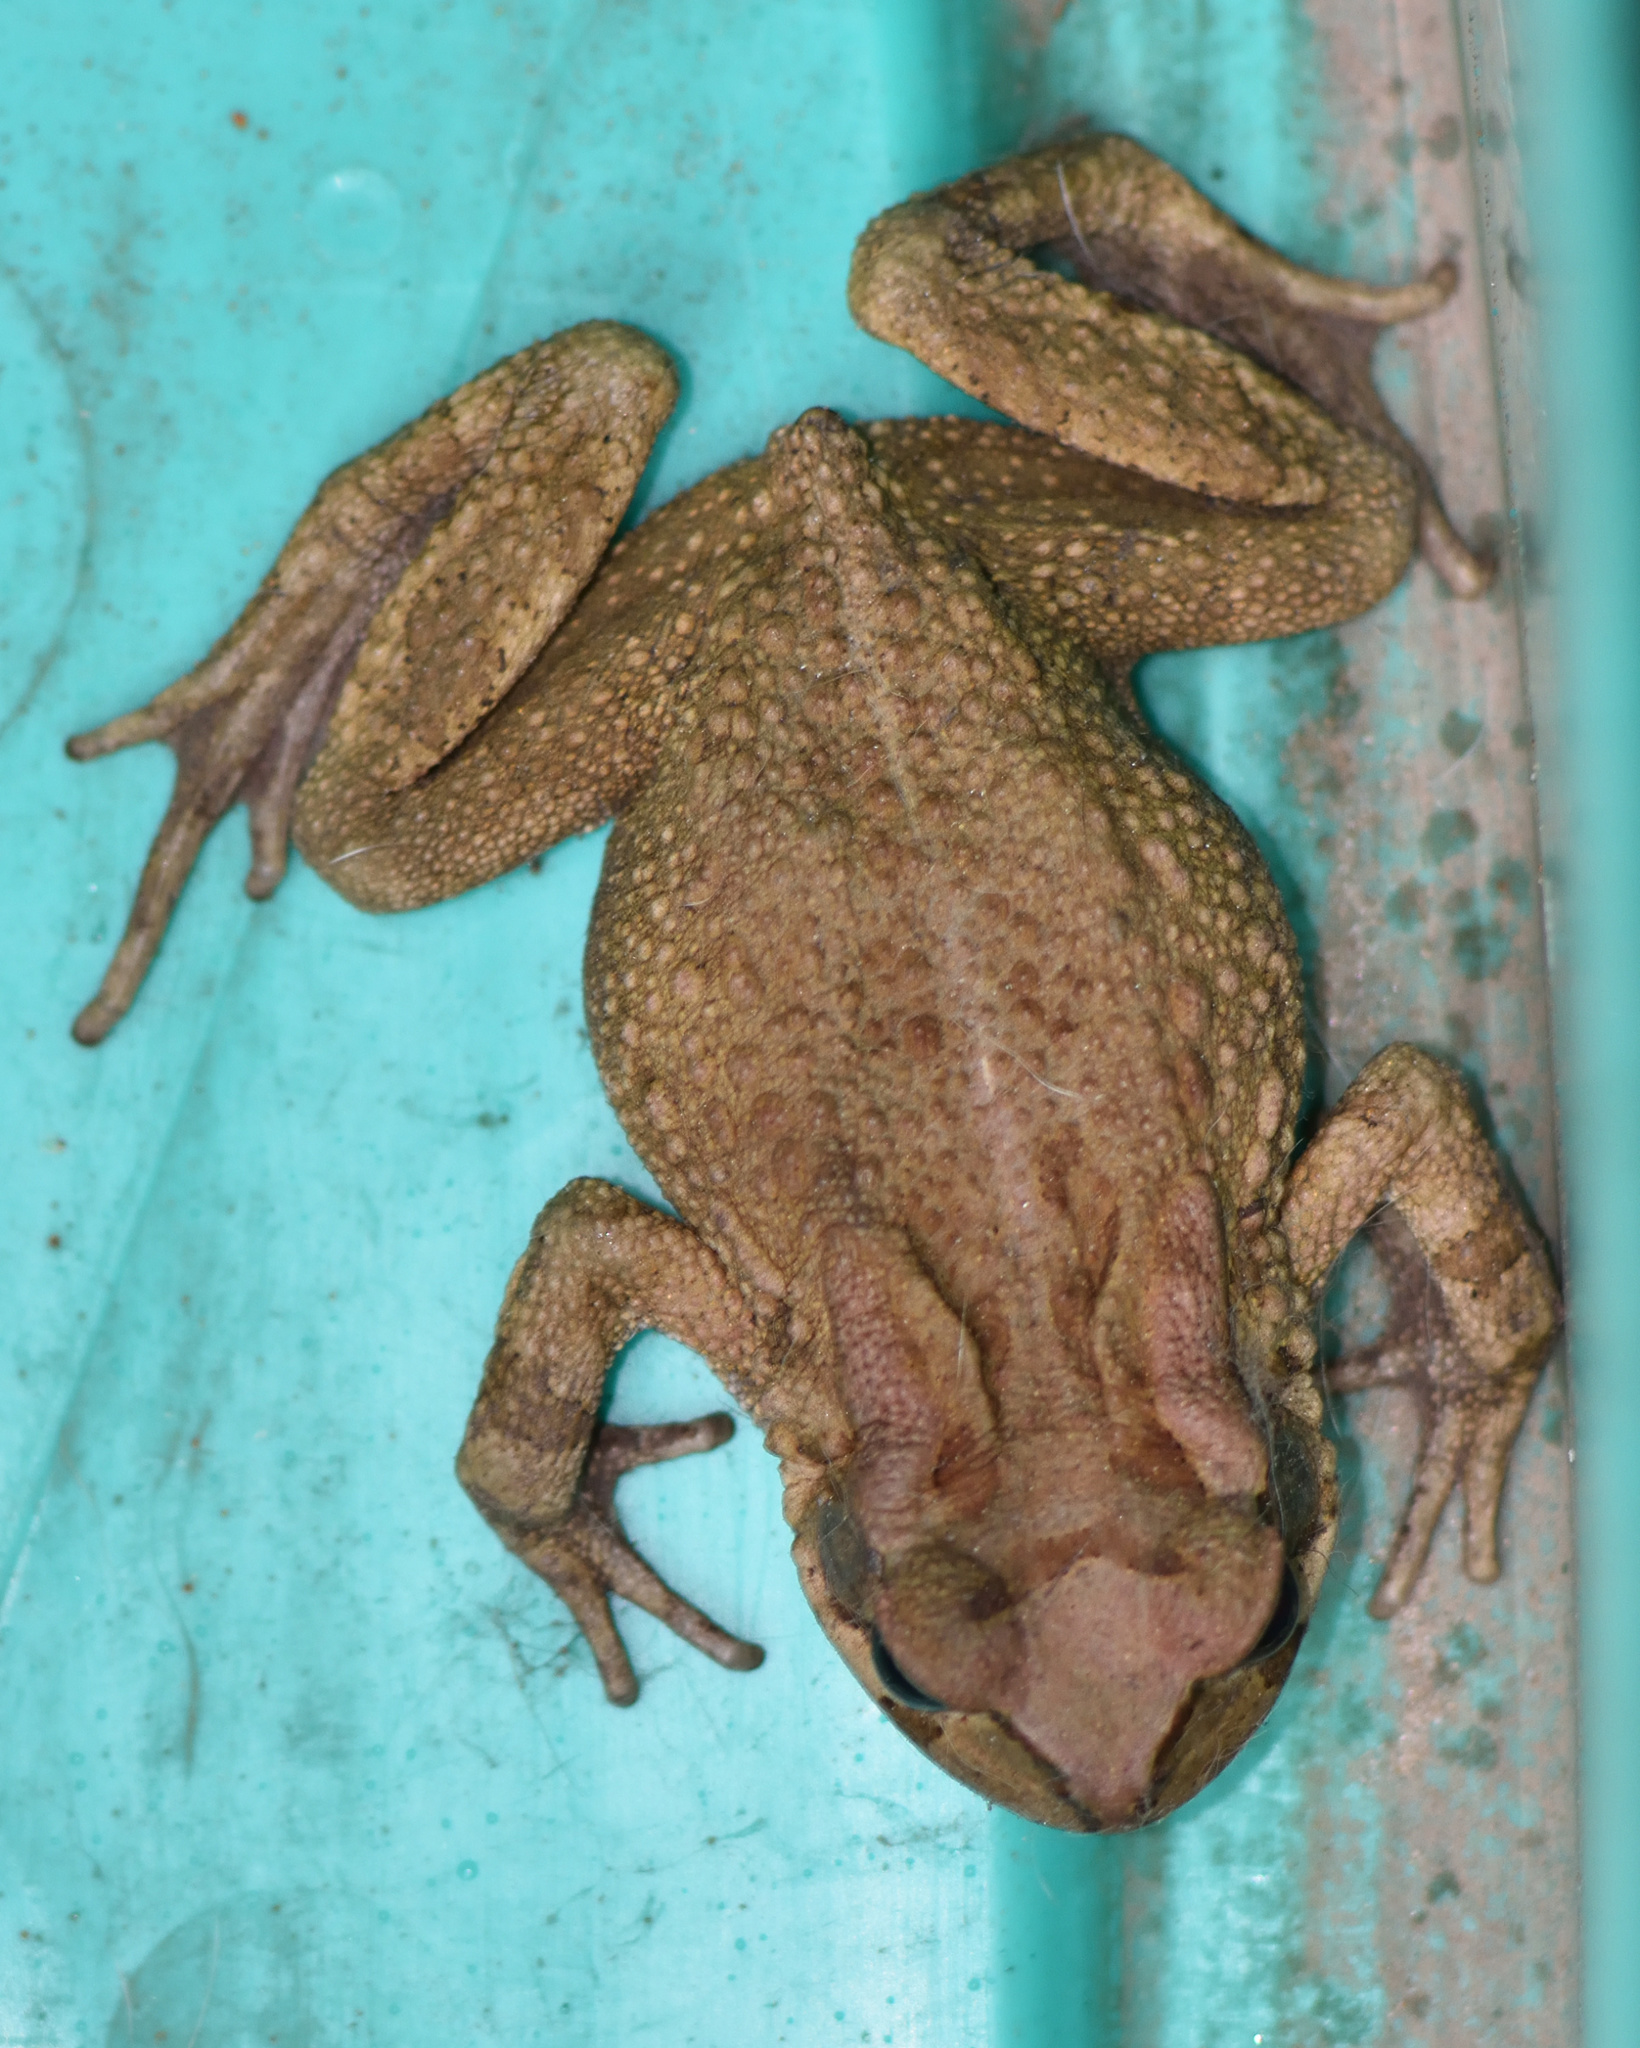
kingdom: Animalia
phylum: Chordata
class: Amphibia
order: Anura
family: Bufonidae
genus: Sclerophrys
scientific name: Sclerophrys capensis
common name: Ranger’s toad
